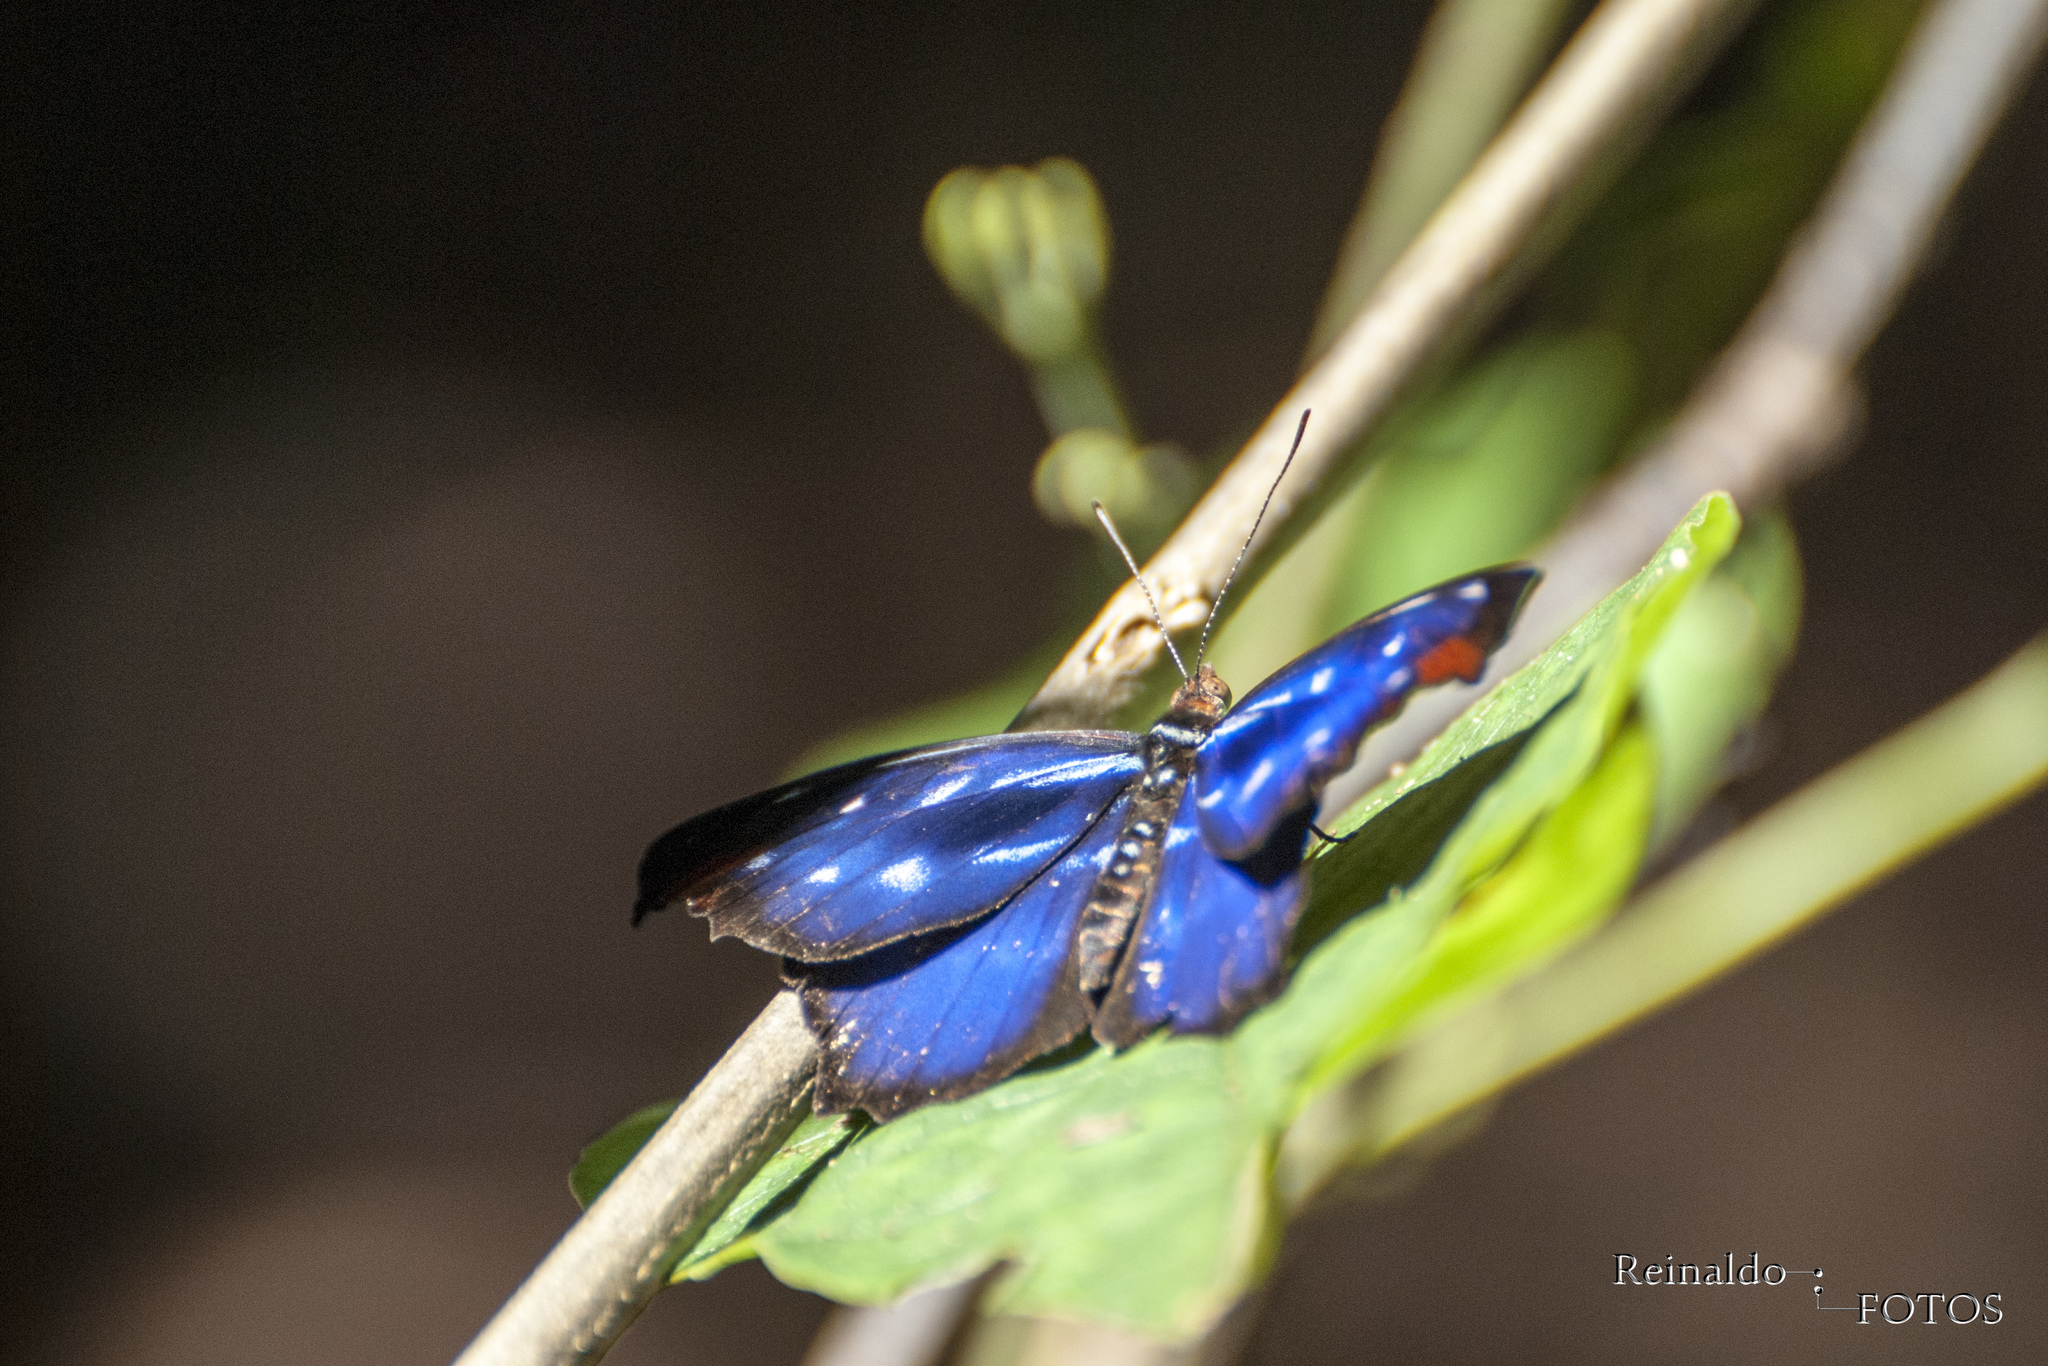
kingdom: Animalia
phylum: Arthropoda
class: Insecta
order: Lepidoptera
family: Nymphalidae
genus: Myscelia
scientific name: Myscelia orsis
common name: Orsis bluewing
